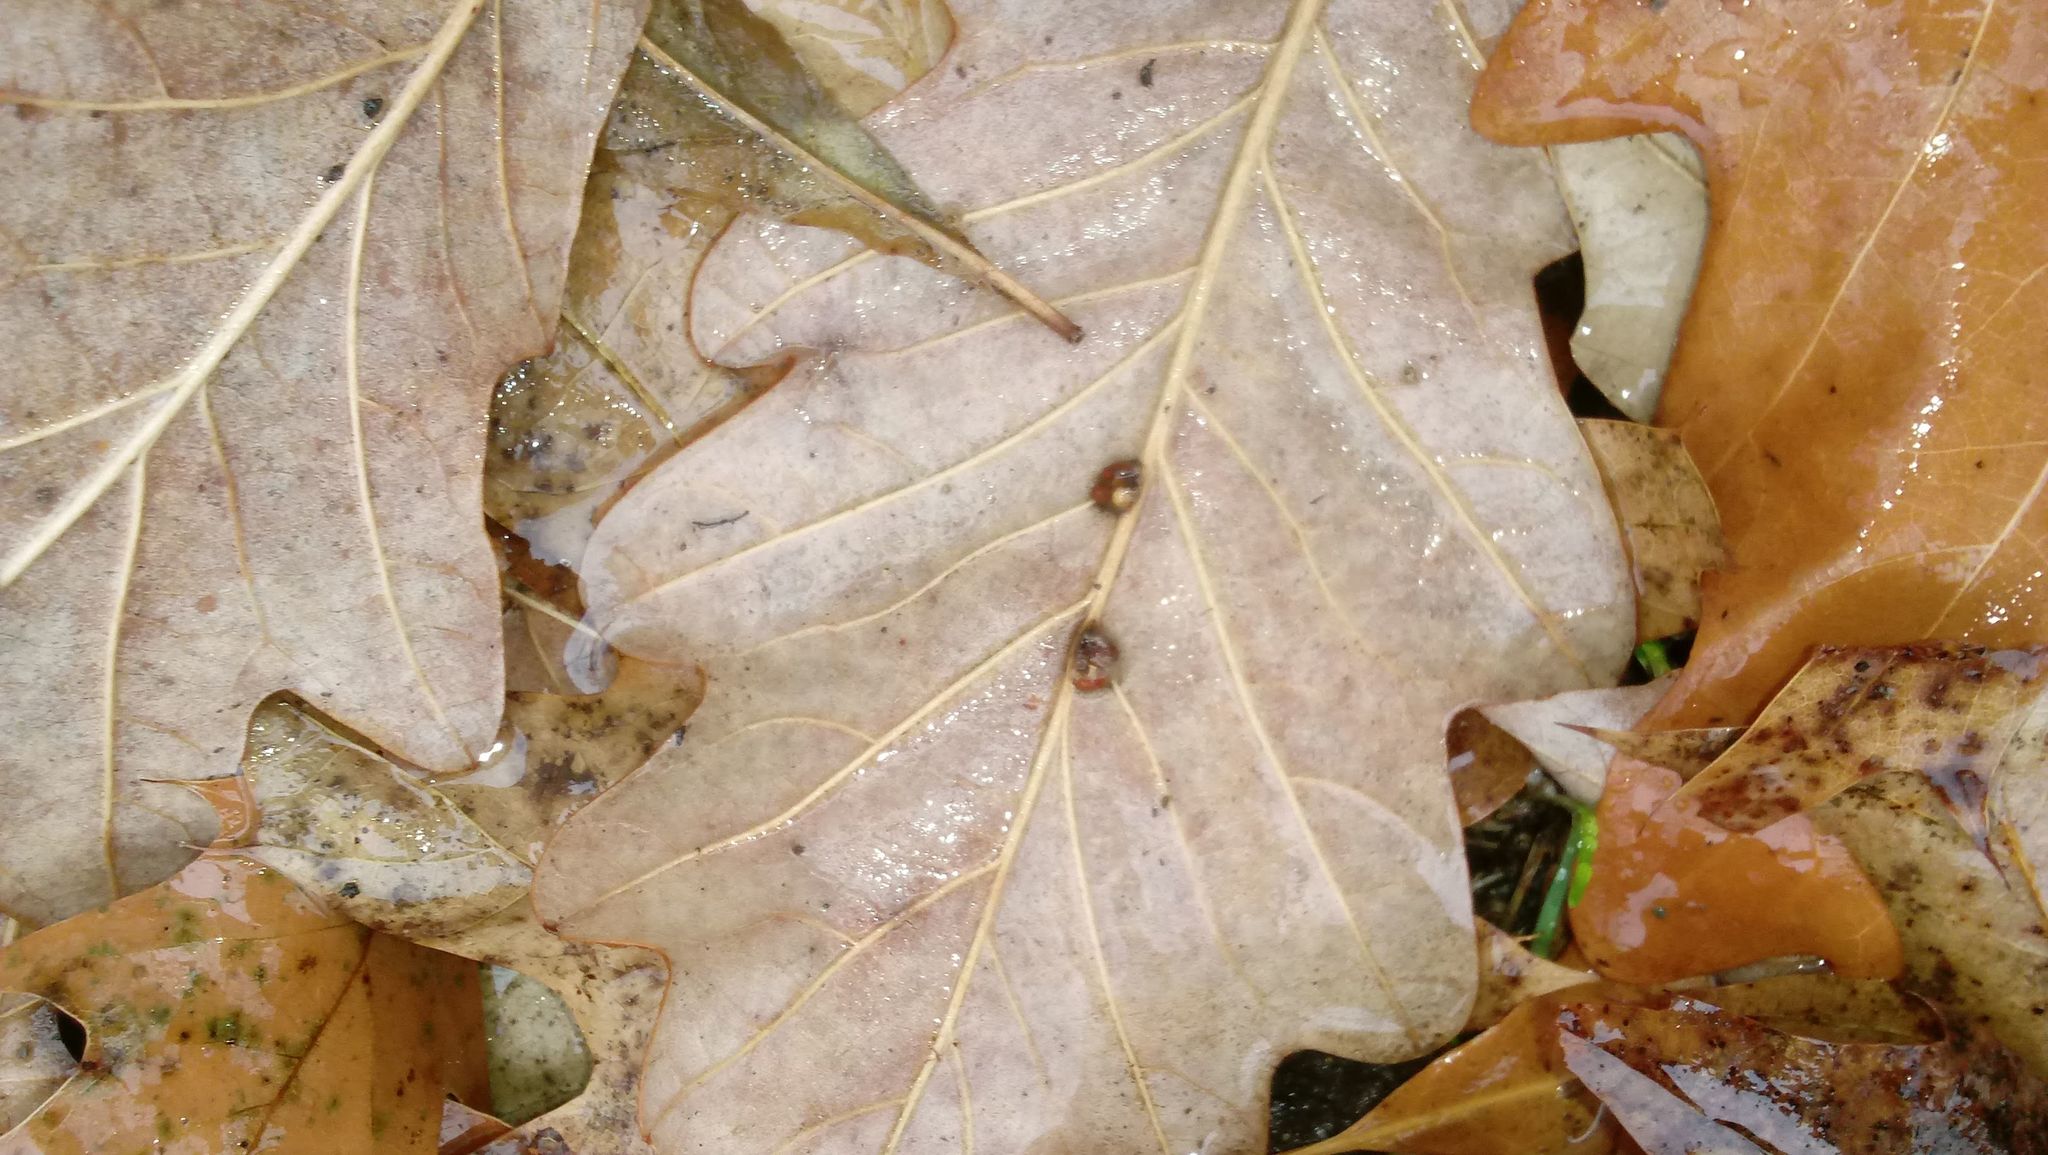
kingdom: Animalia
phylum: Arthropoda
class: Insecta
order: Hymenoptera
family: Cynipidae
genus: Andricus
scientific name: Andricus Druon ignotum
